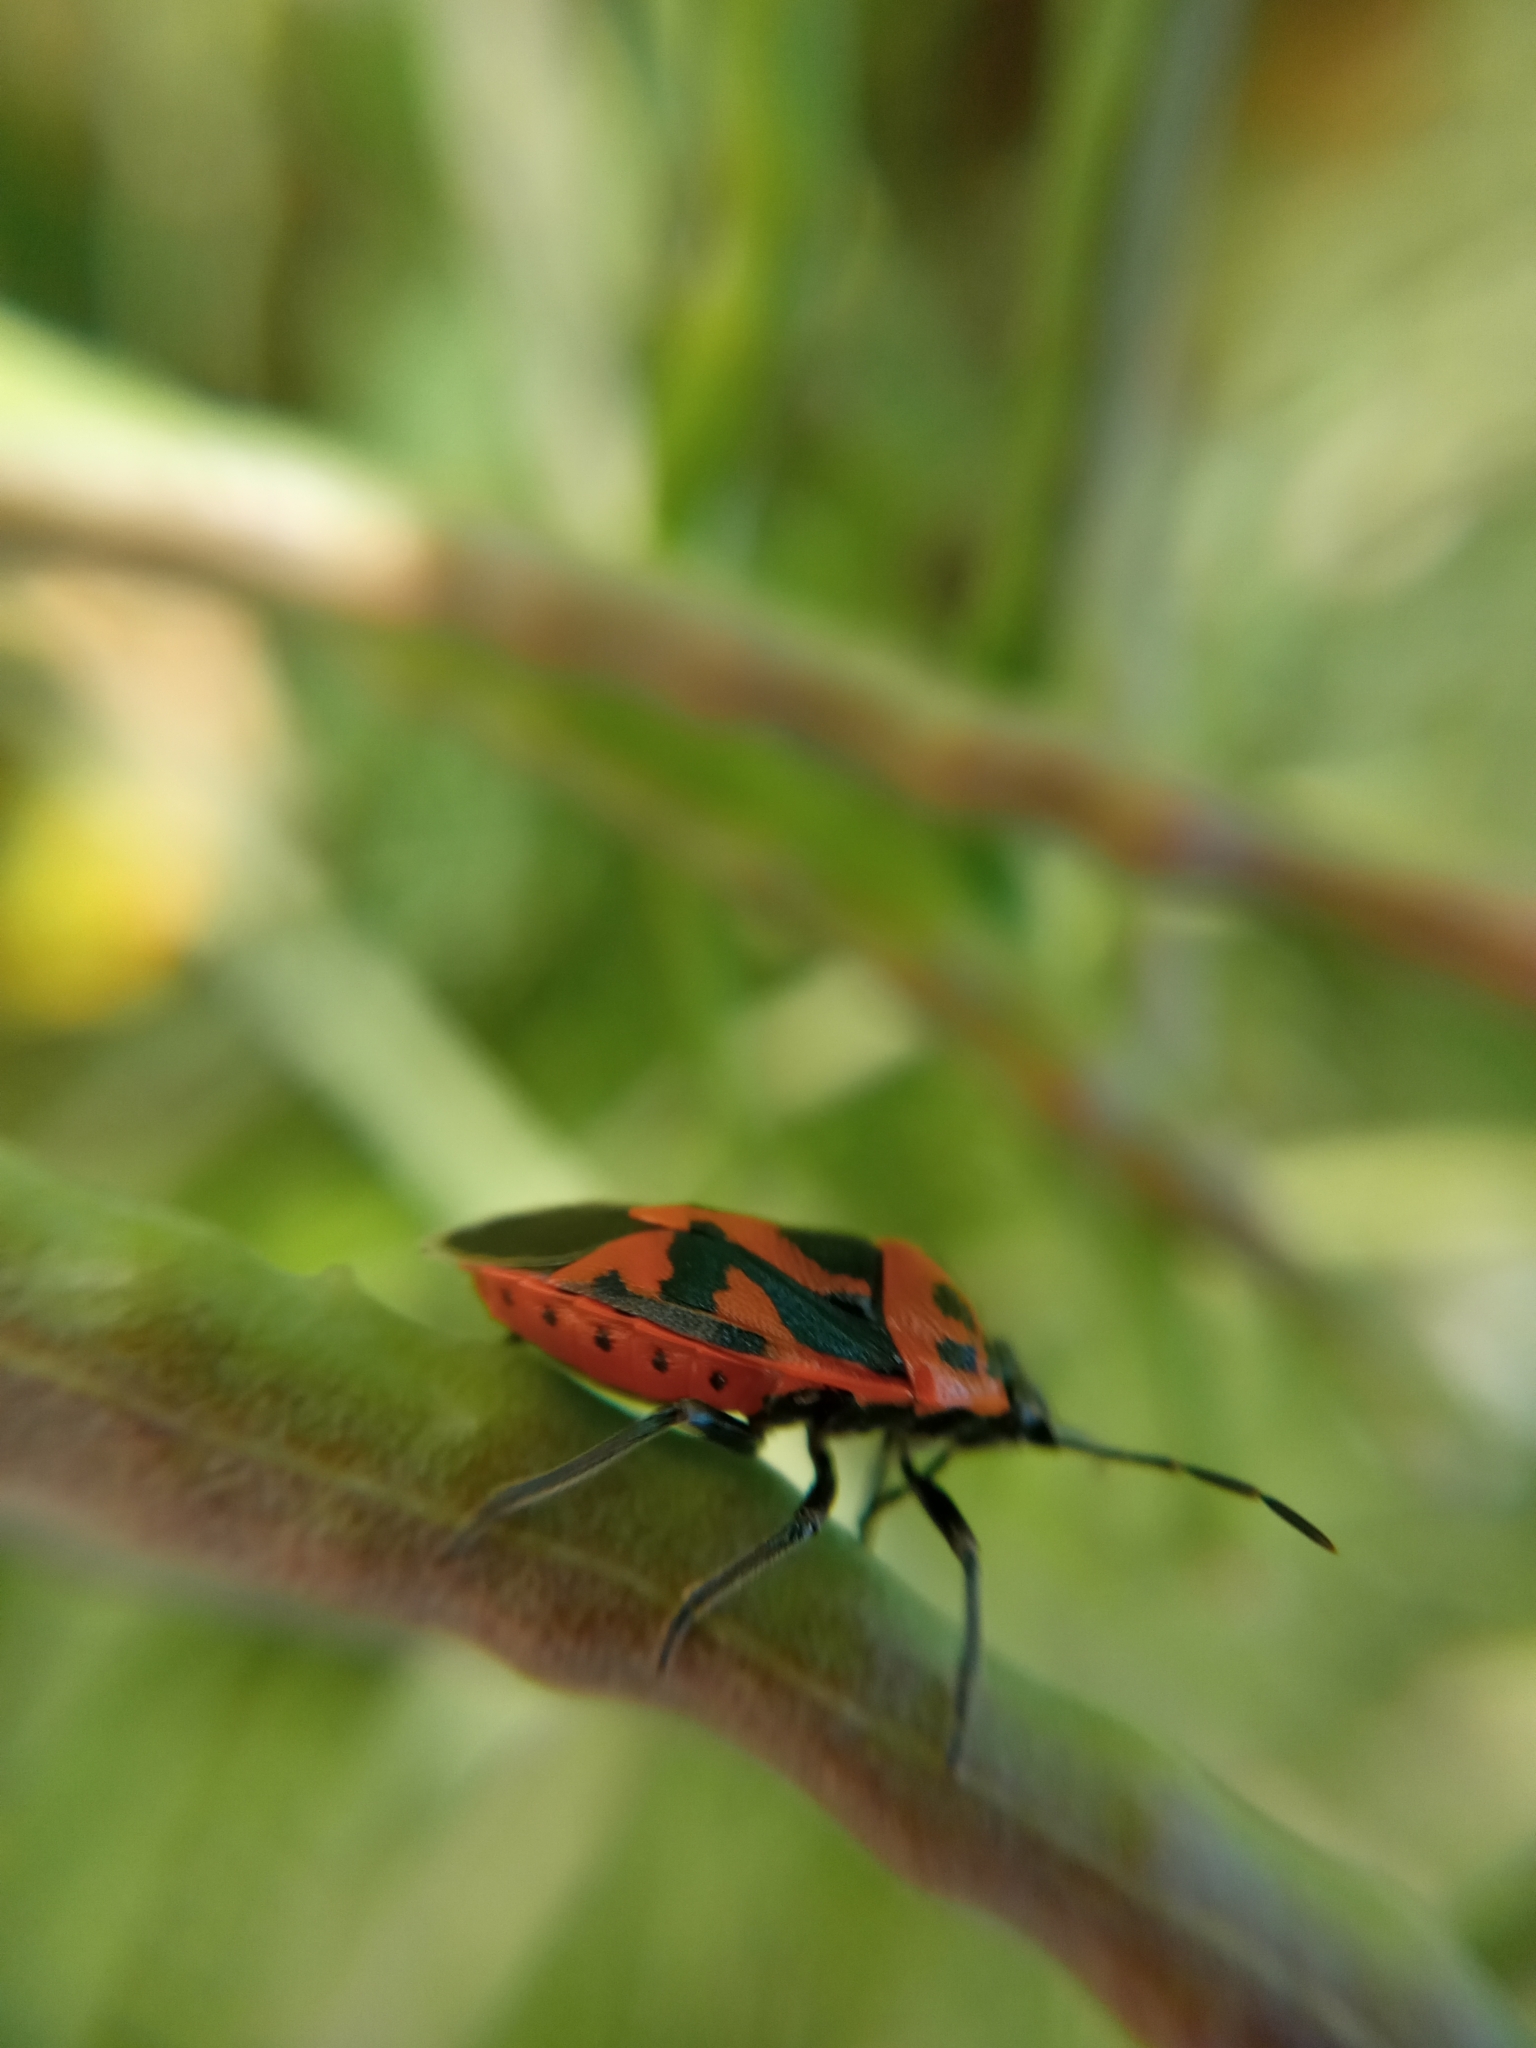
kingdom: Animalia
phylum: Arthropoda
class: Insecta
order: Hemiptera
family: Pentatomidae
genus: Eurydema
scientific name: Eurydema ornata
